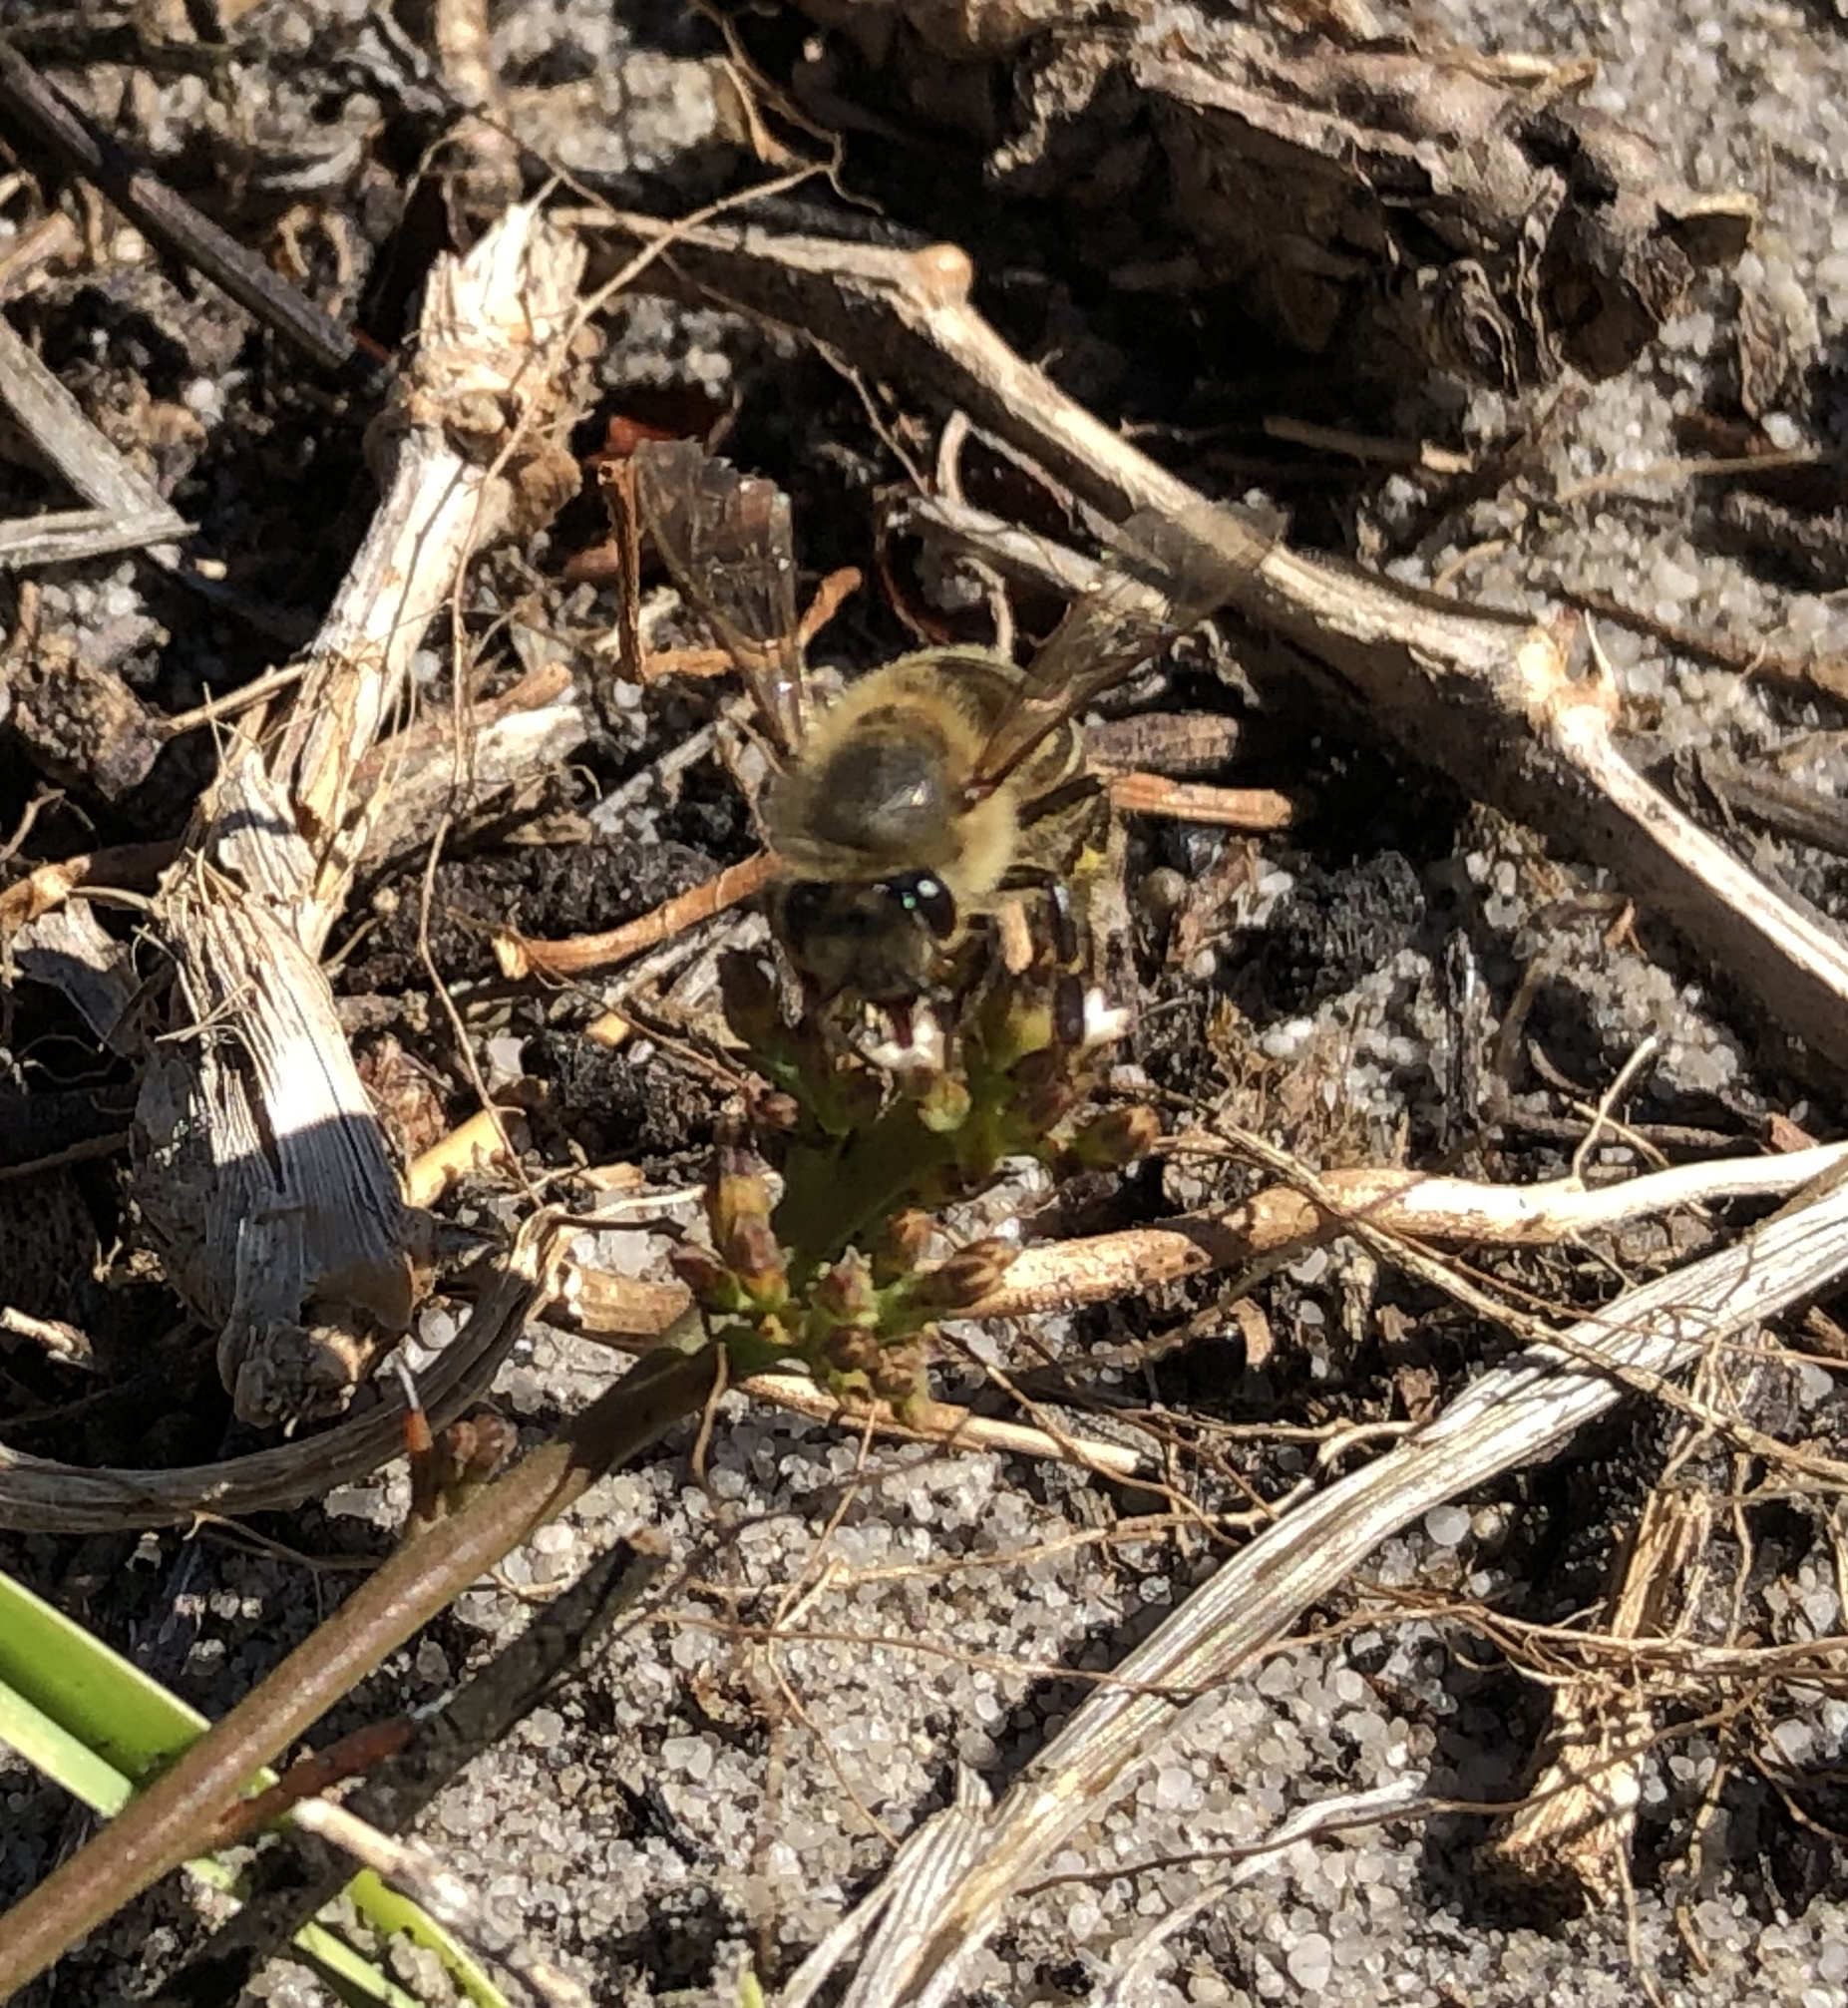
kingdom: Animalia
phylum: Arthropoda
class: Insecta
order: Hymenoptera
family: Apidae
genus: Apis
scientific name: Apis mellifera
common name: Honey bee
